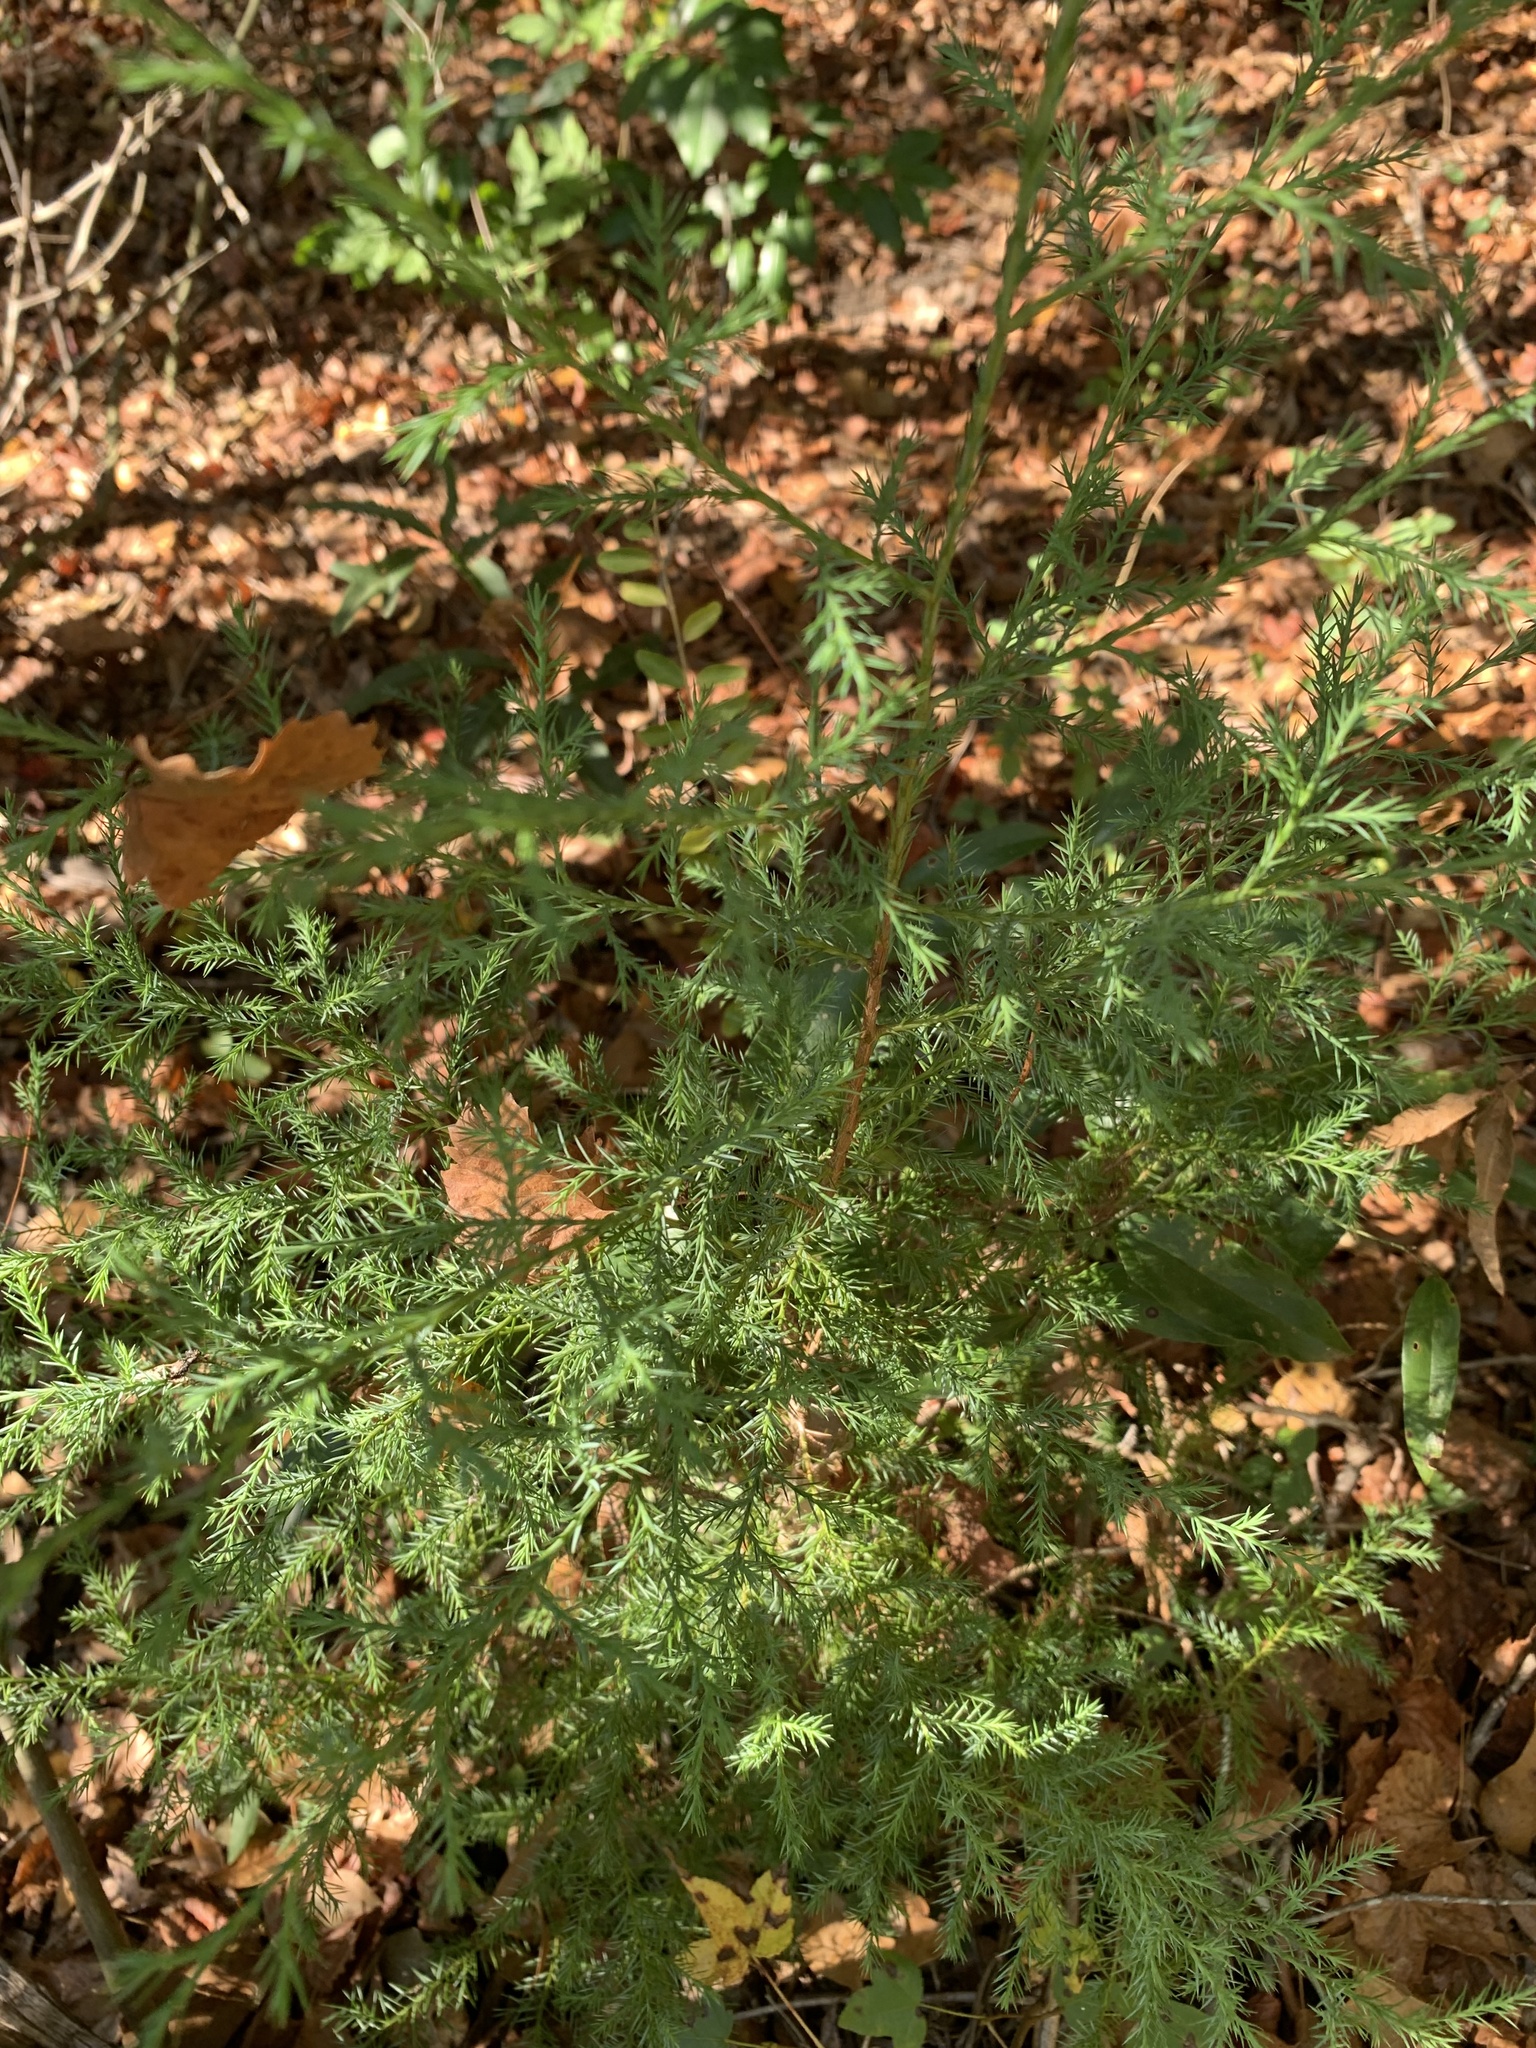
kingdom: Plantae
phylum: Tracheophyta
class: Pinopsida
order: Pinales
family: Cupressaceae
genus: Juniperus
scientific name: Juniperus virginiana
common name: Red juniper
